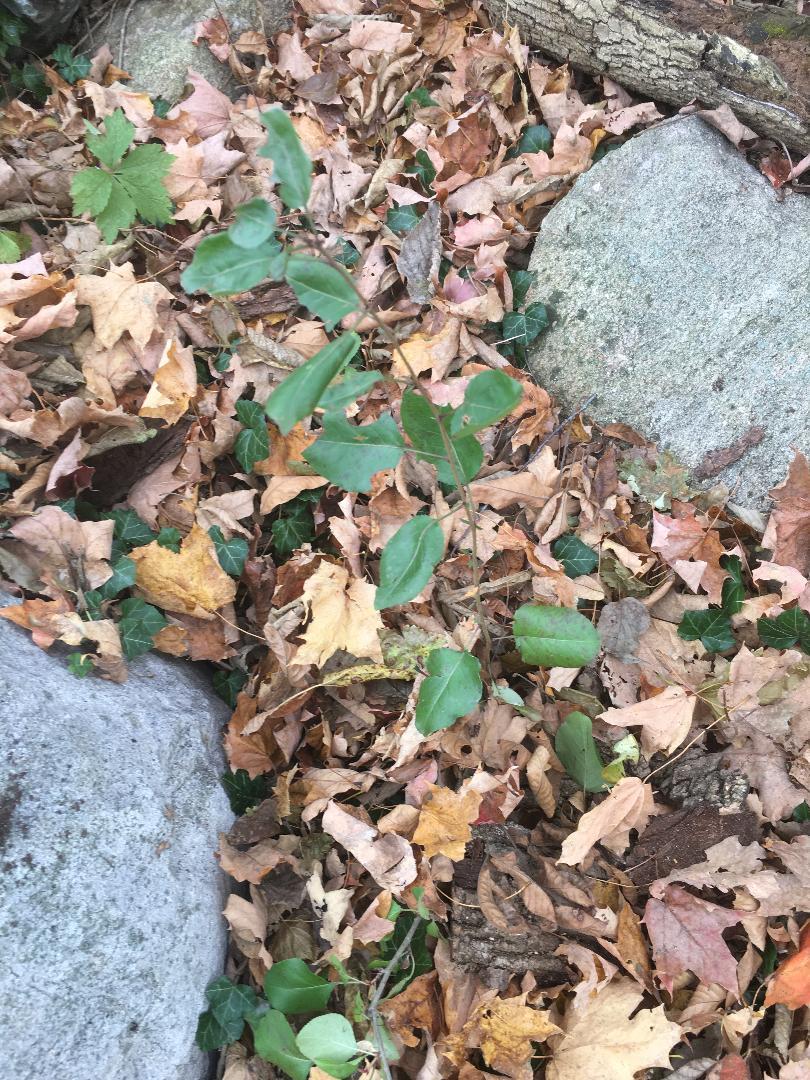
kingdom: Plantae
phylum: Tracheophyta
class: Magnoliopsida
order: Rosales
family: Rosaceae
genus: Pyrus
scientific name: Pyrus calleryana
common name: Callery pear
